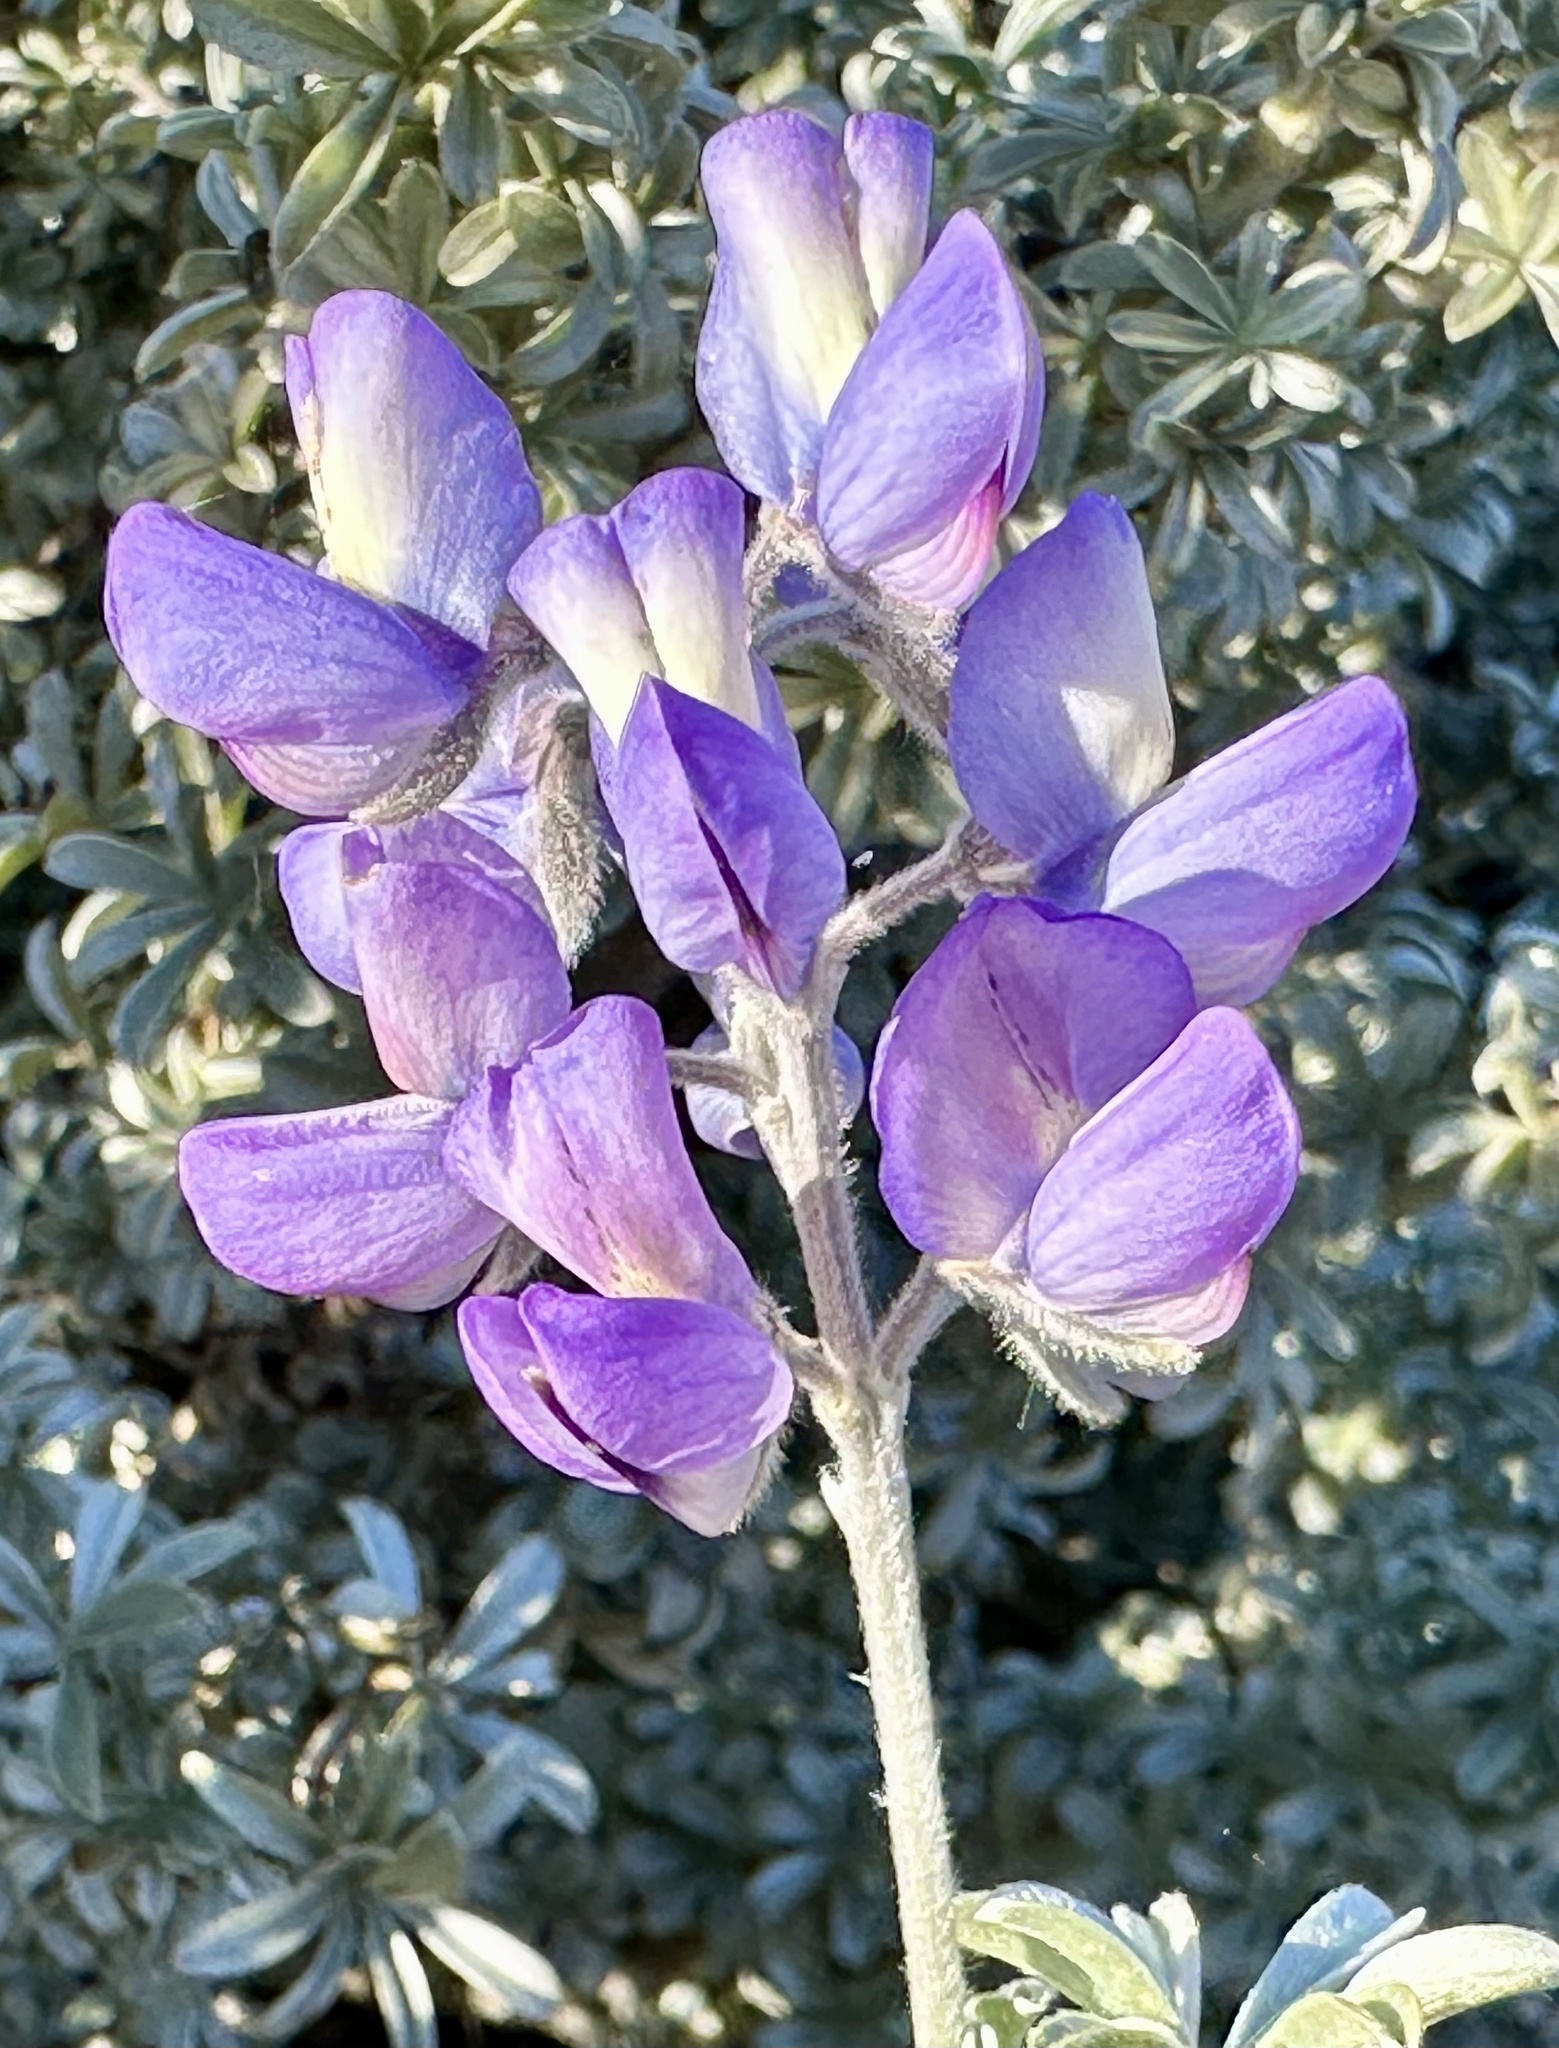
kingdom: Plantae
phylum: Tracheophyta
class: Magnoliopsida
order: Fabales
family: Fabaceae
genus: Lupinus
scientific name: Lupinus chamissonis
